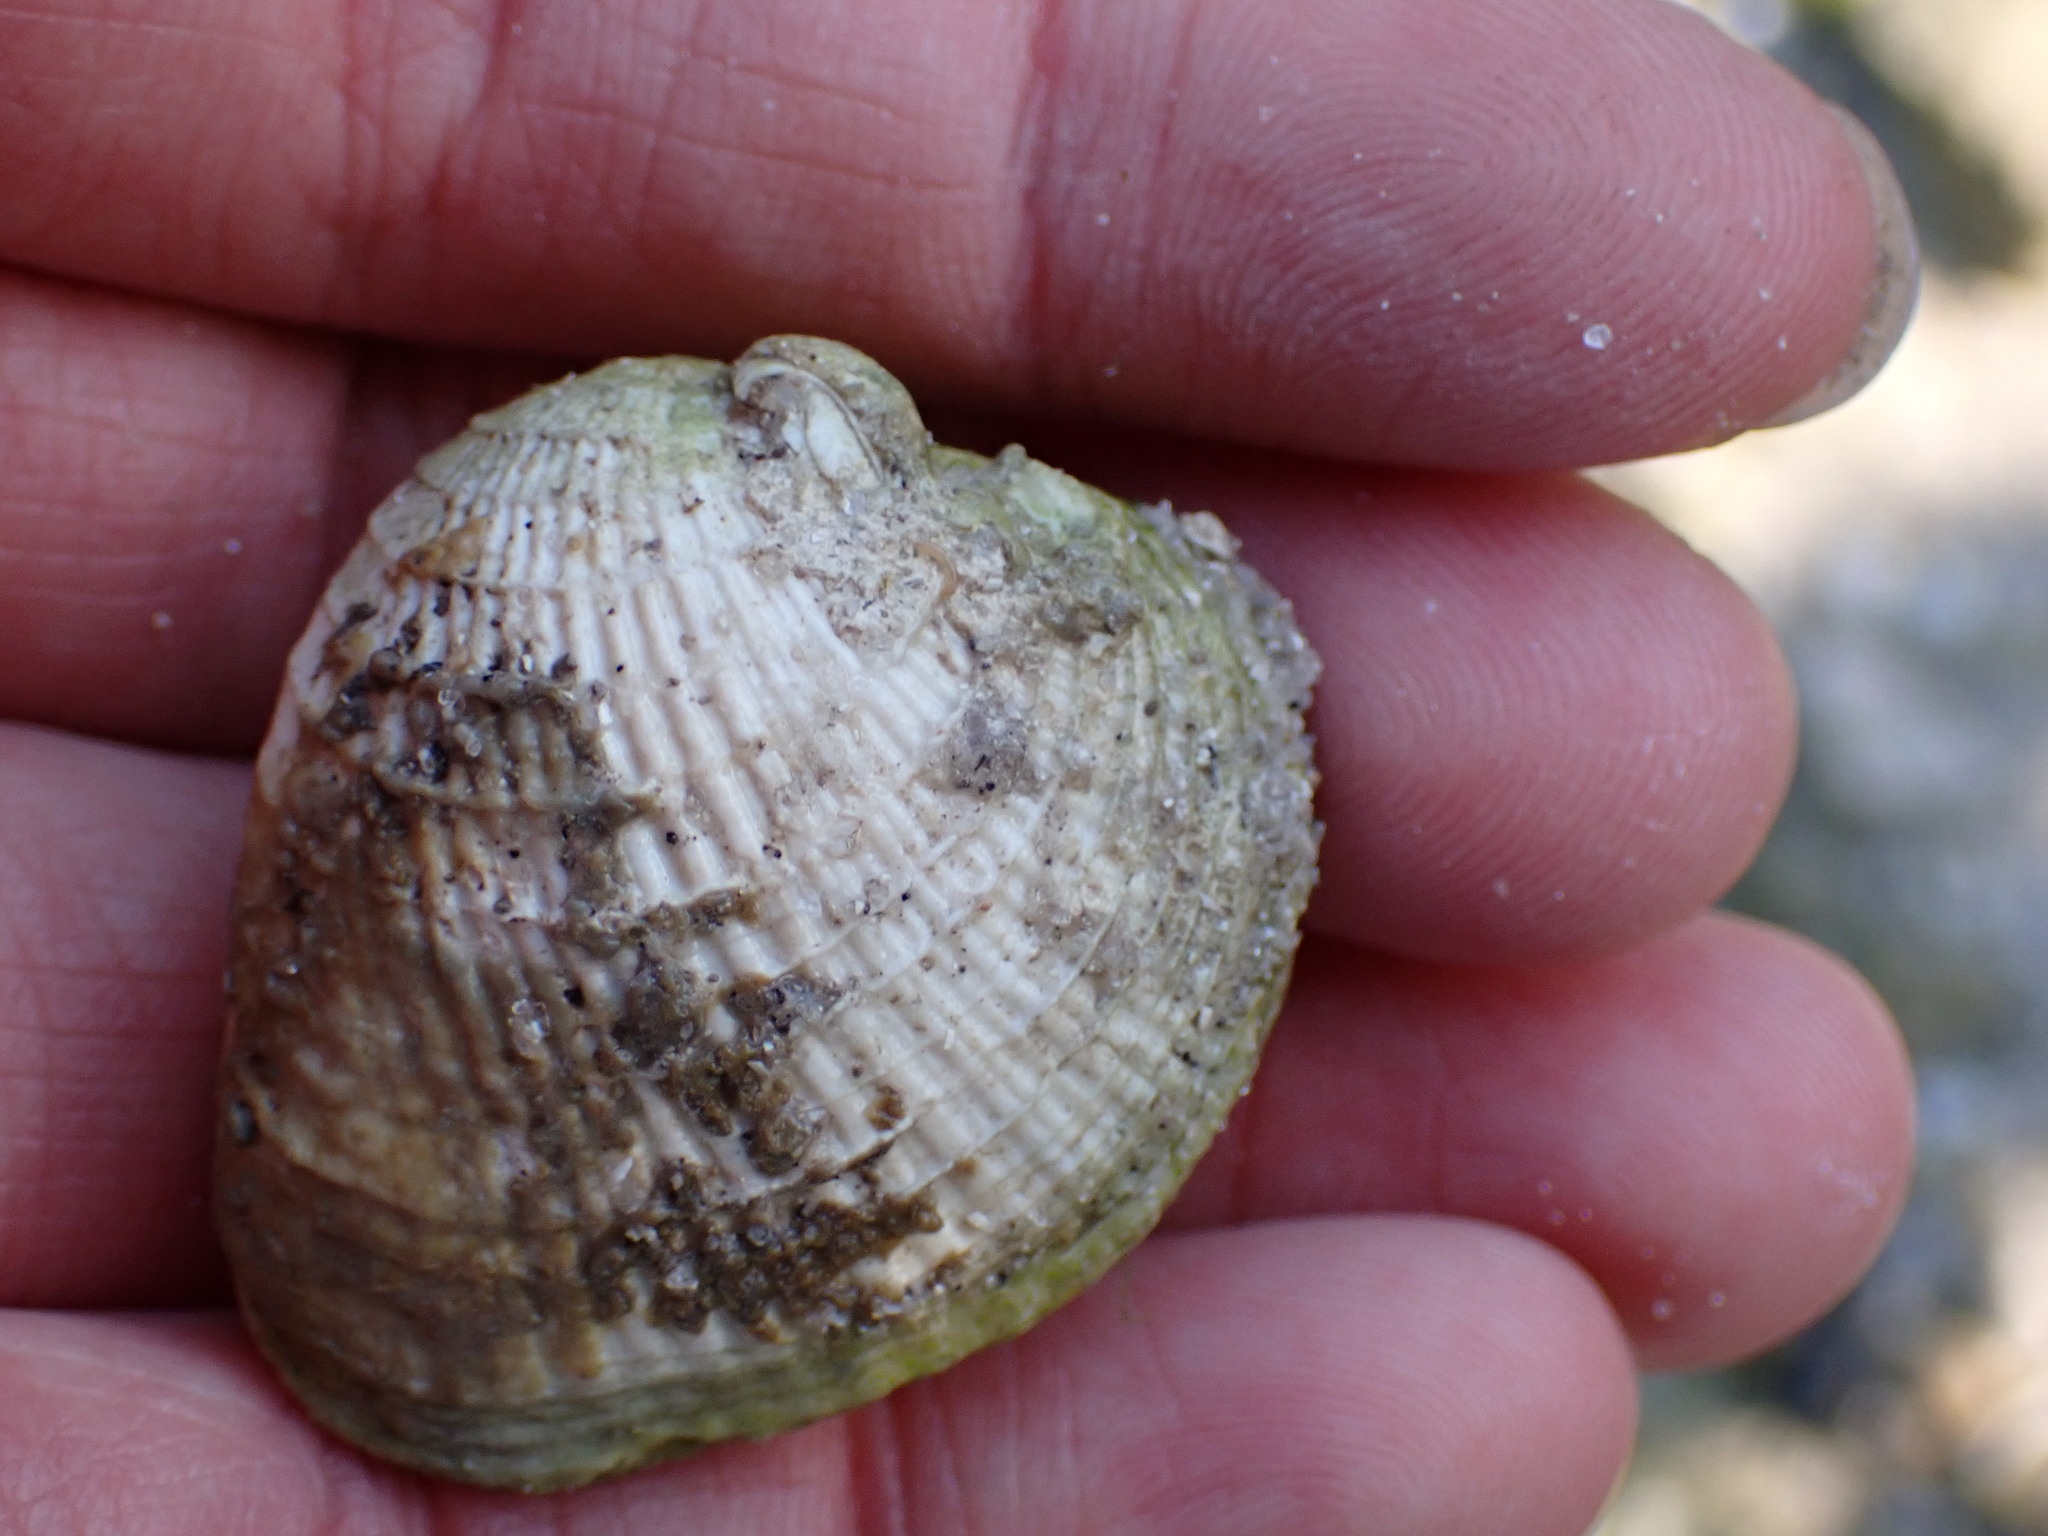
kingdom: Animalia
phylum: Mollusca
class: Bivalvia
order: Venerida
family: Veneridae
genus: Chione
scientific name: Chione elevata
